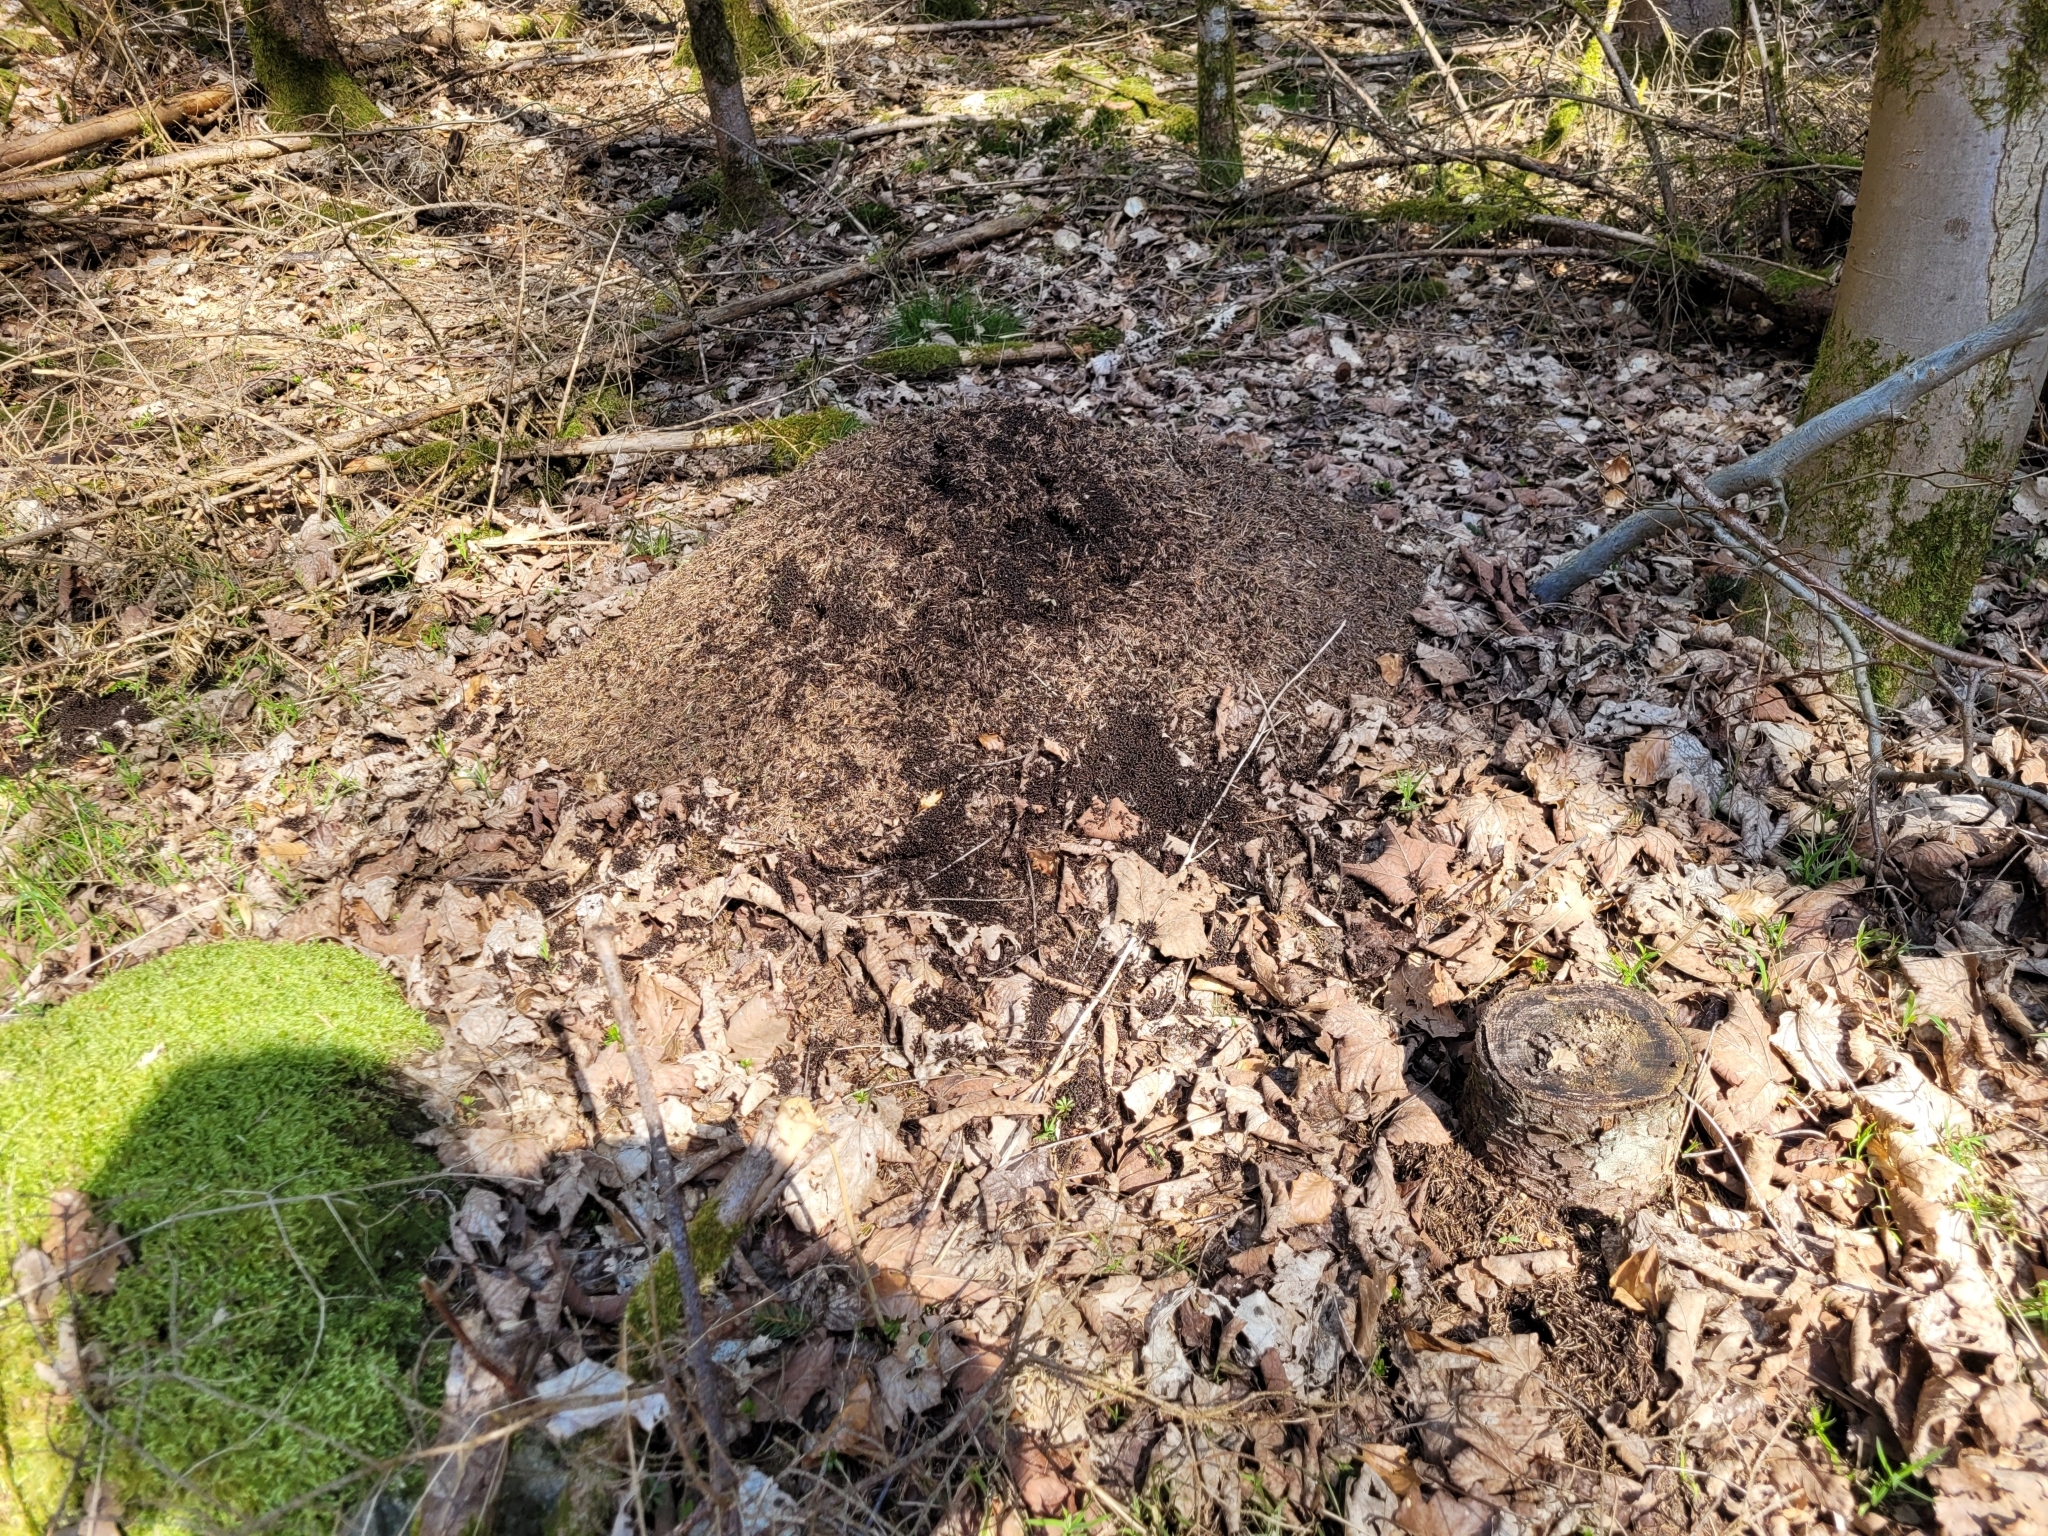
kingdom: Animalia
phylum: Arthropoda
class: Insecta
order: Hymenoptera
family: Formicidae
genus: Formica
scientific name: Formica
